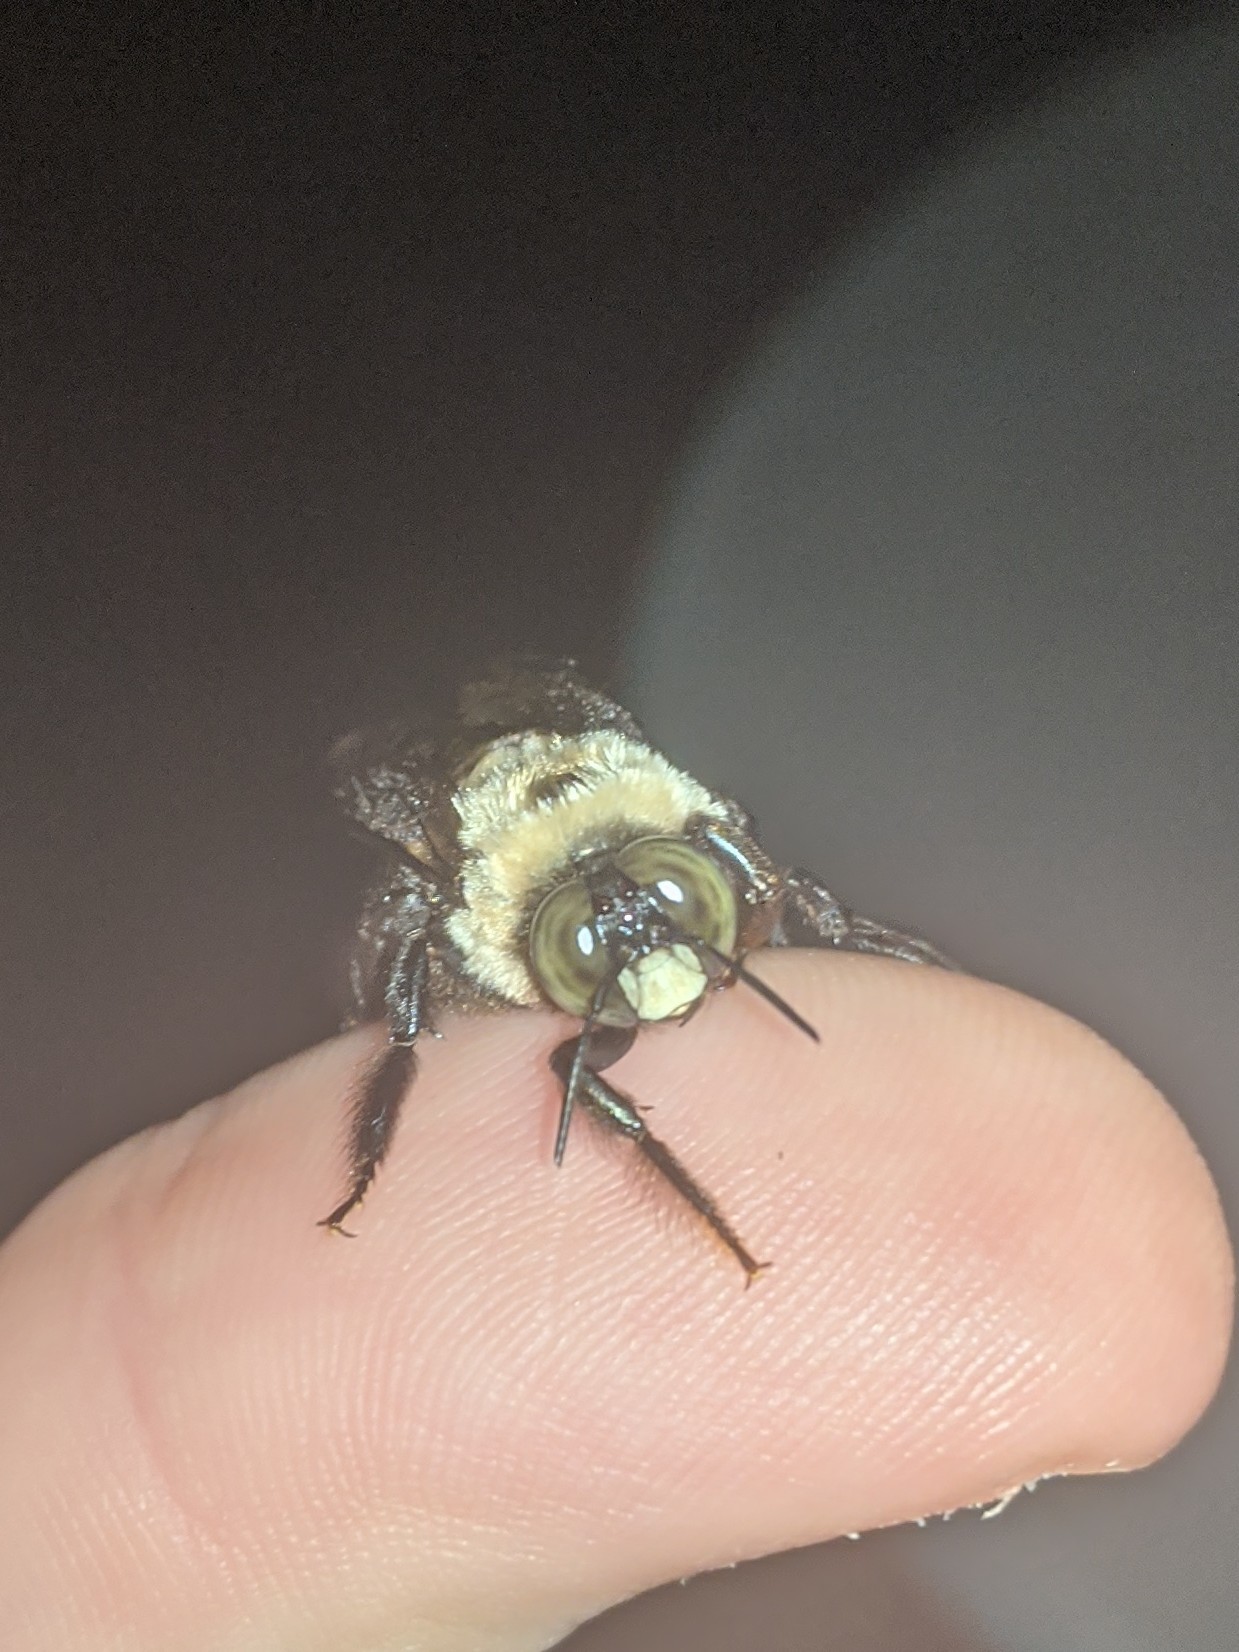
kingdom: Animalia
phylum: Arthropoda
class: Insecta
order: Hymenoptera
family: Apidae
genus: Xylocopa
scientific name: Xylocopa virginica
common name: Carpenter bee
